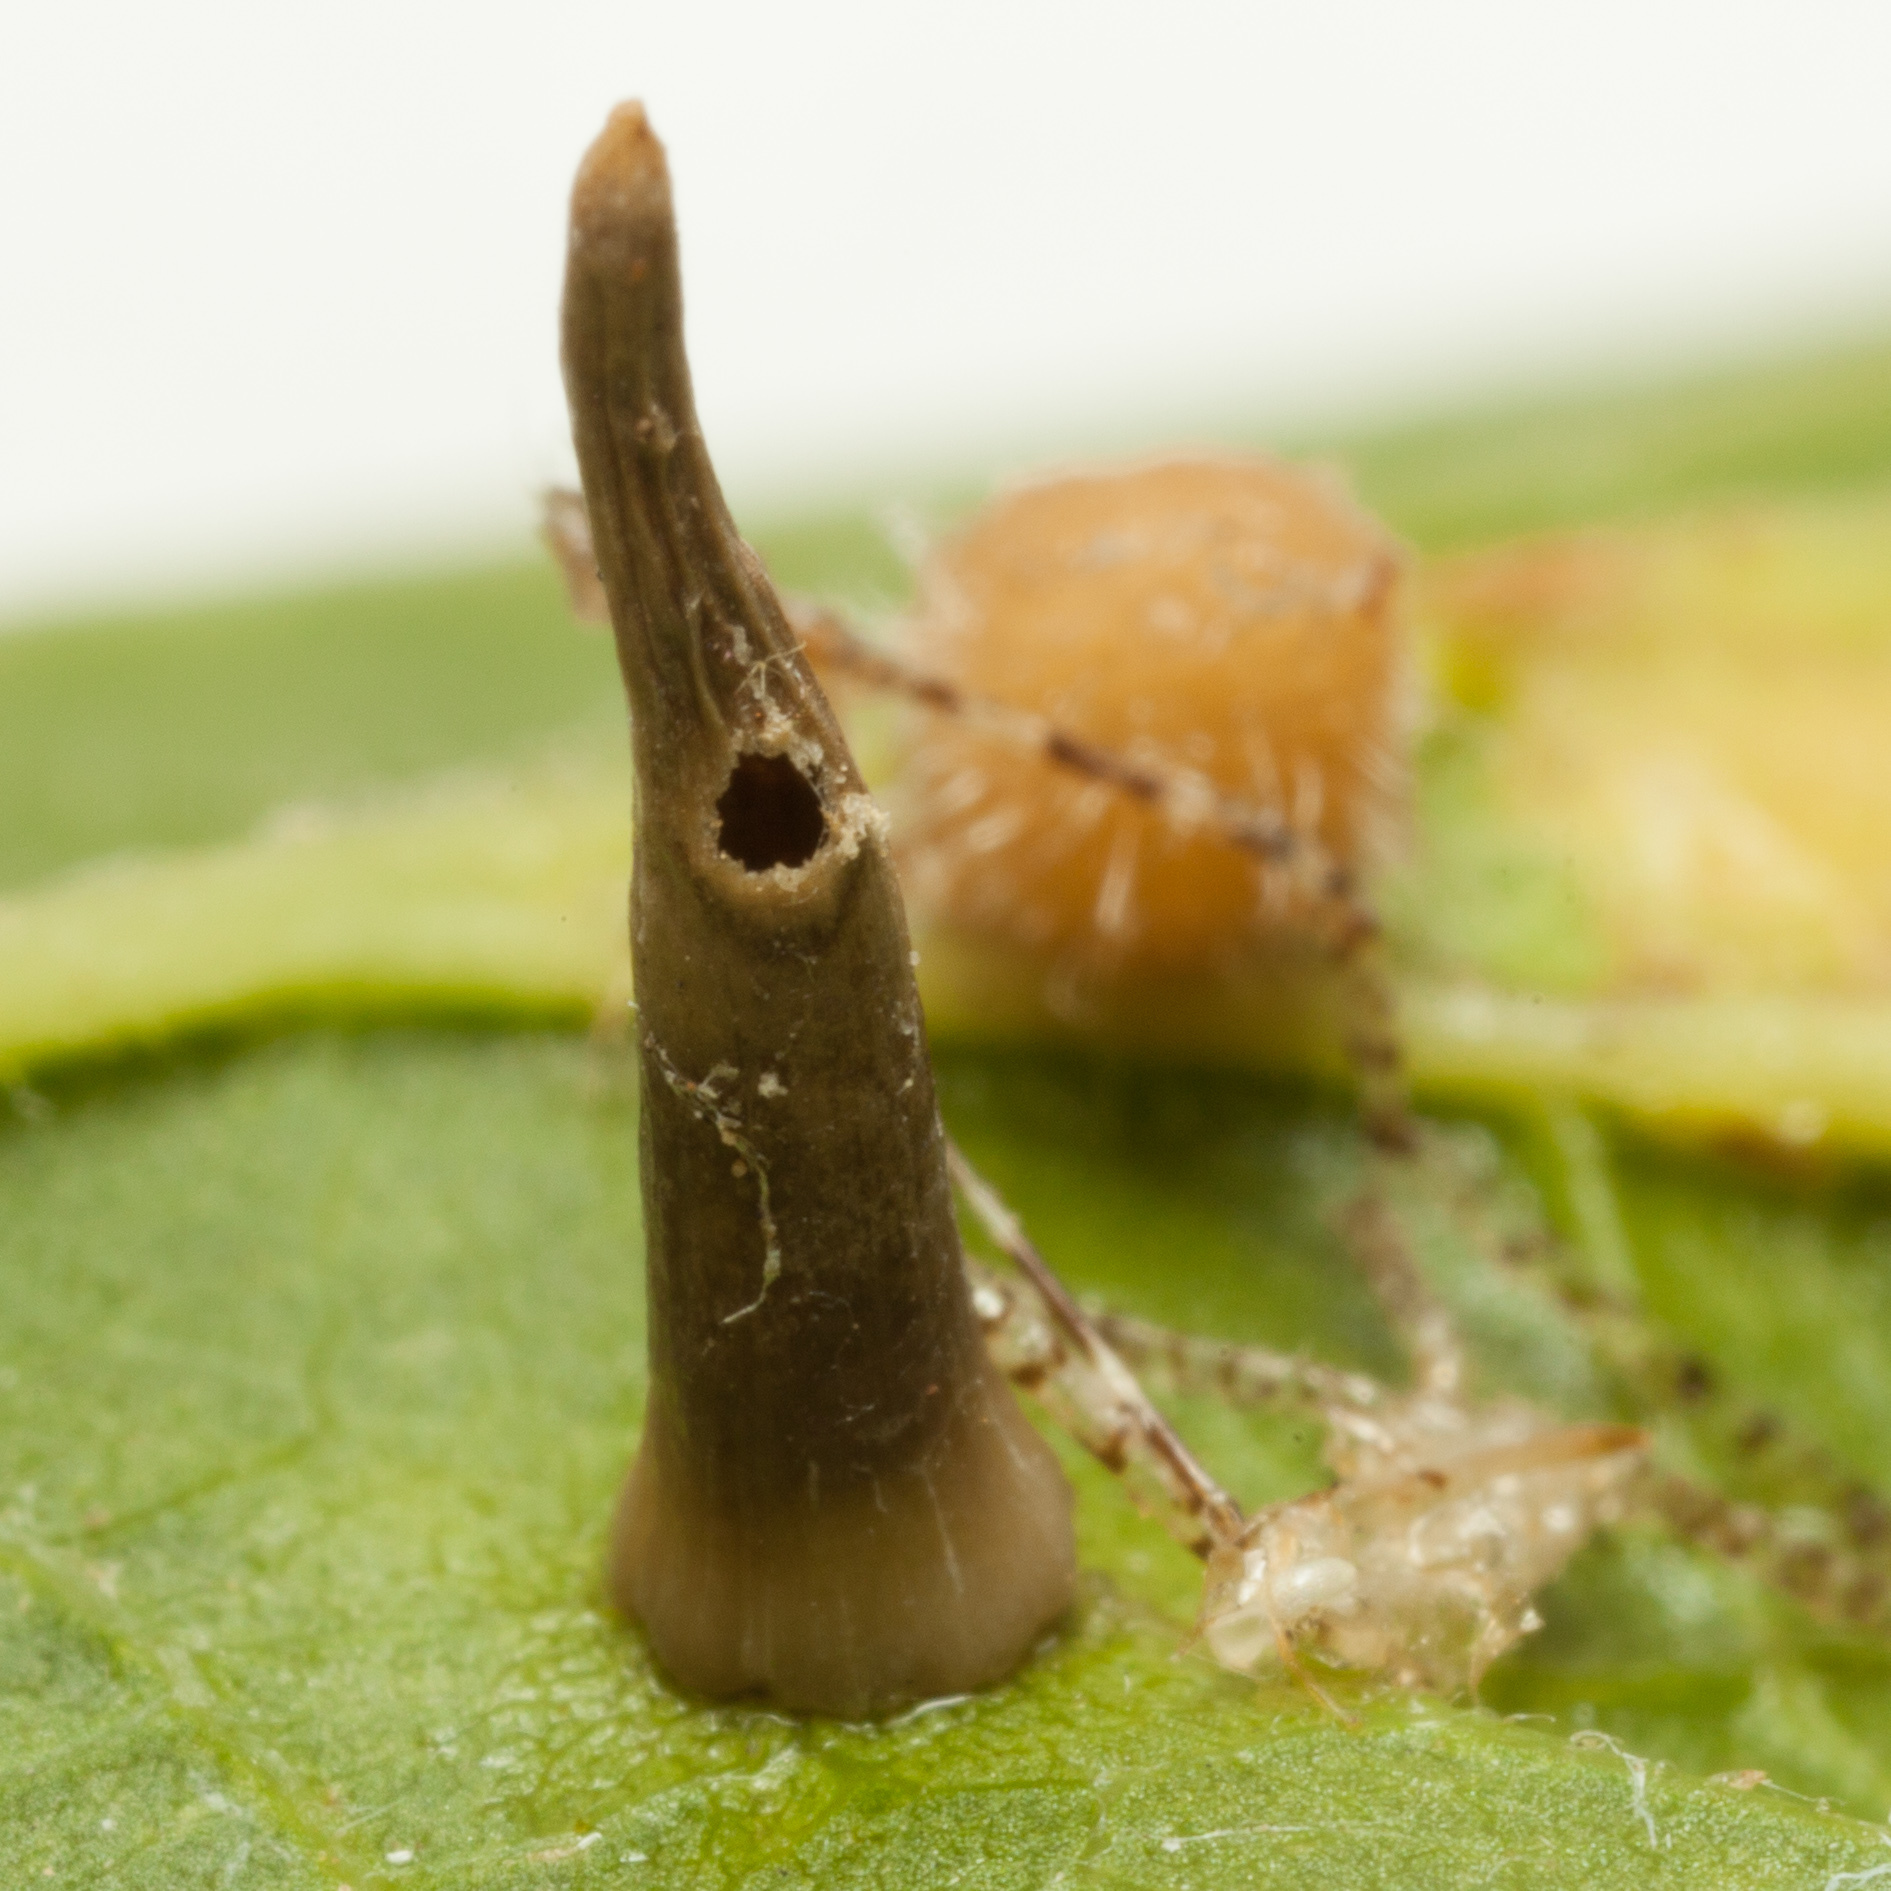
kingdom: Animalia
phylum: Arthropoda
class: Insecta
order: Diptera
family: Cecidomyiidae
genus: Celticecis
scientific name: Celticecis subulata
